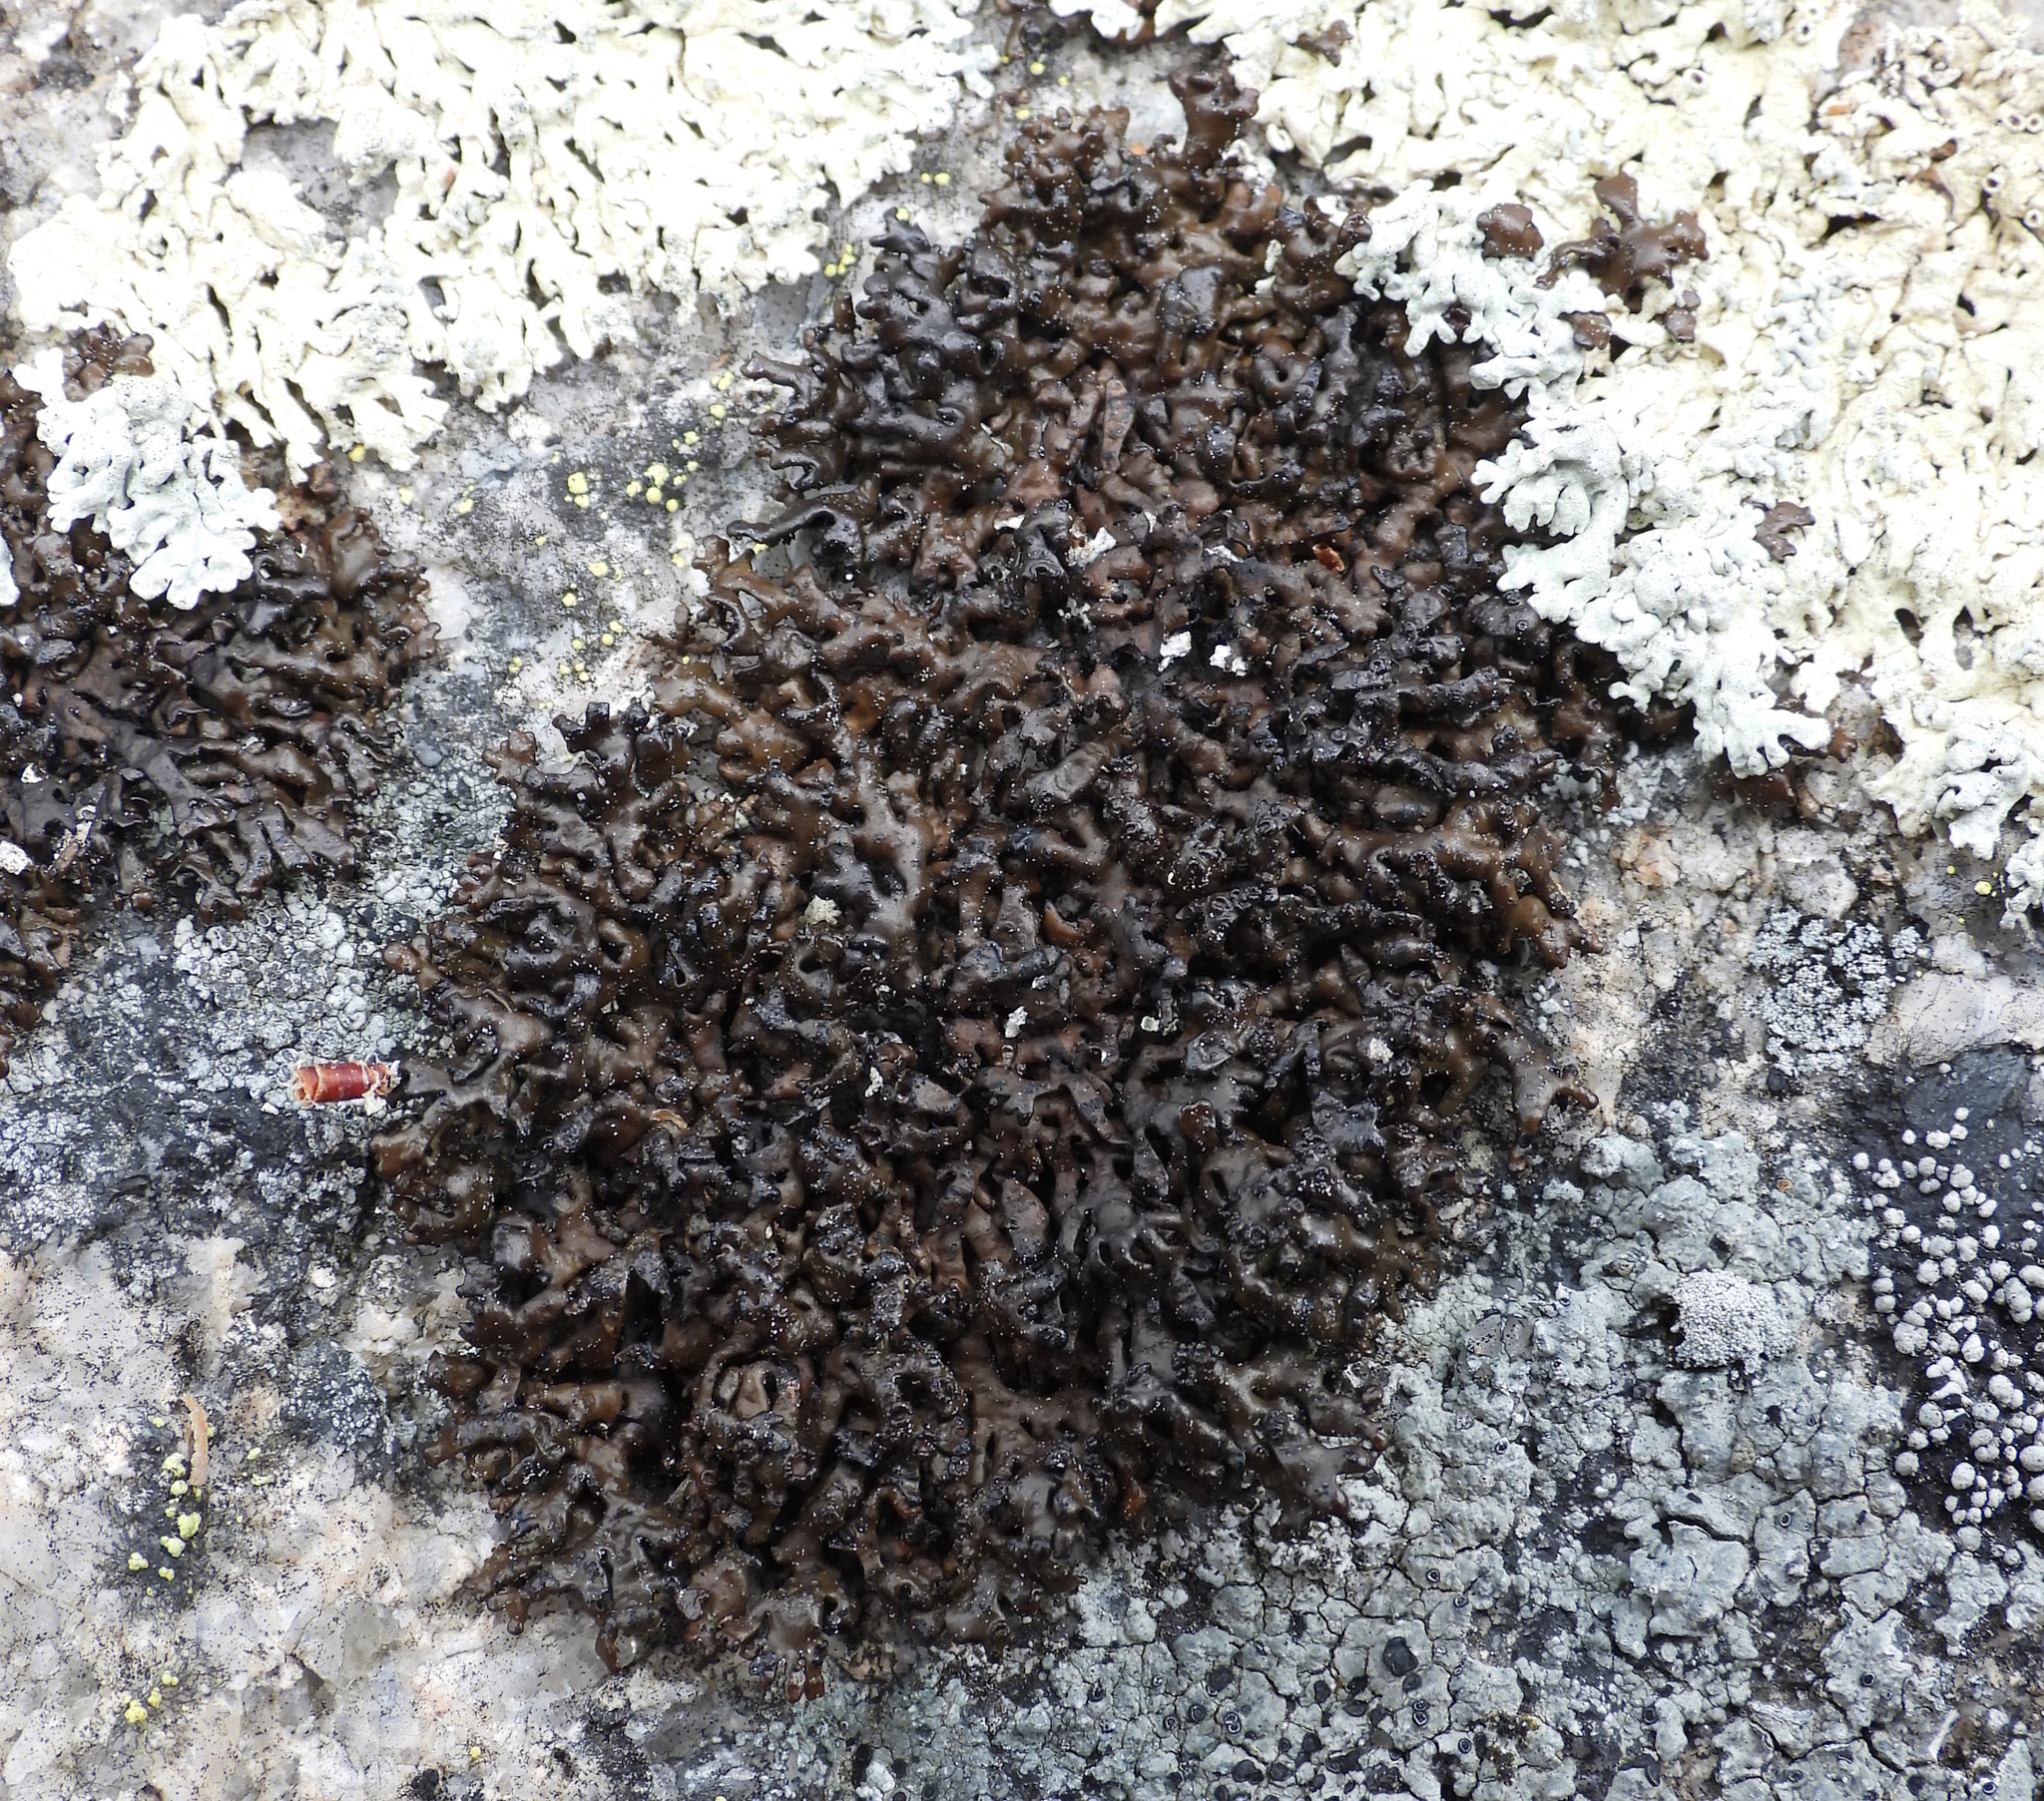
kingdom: Fungi
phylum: Ascomycota
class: Lecanoromycetes
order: Lecanorales
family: Parmeliaceae
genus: Melanelia
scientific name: Melanelia stygia
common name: Alpine camouflage lichen
